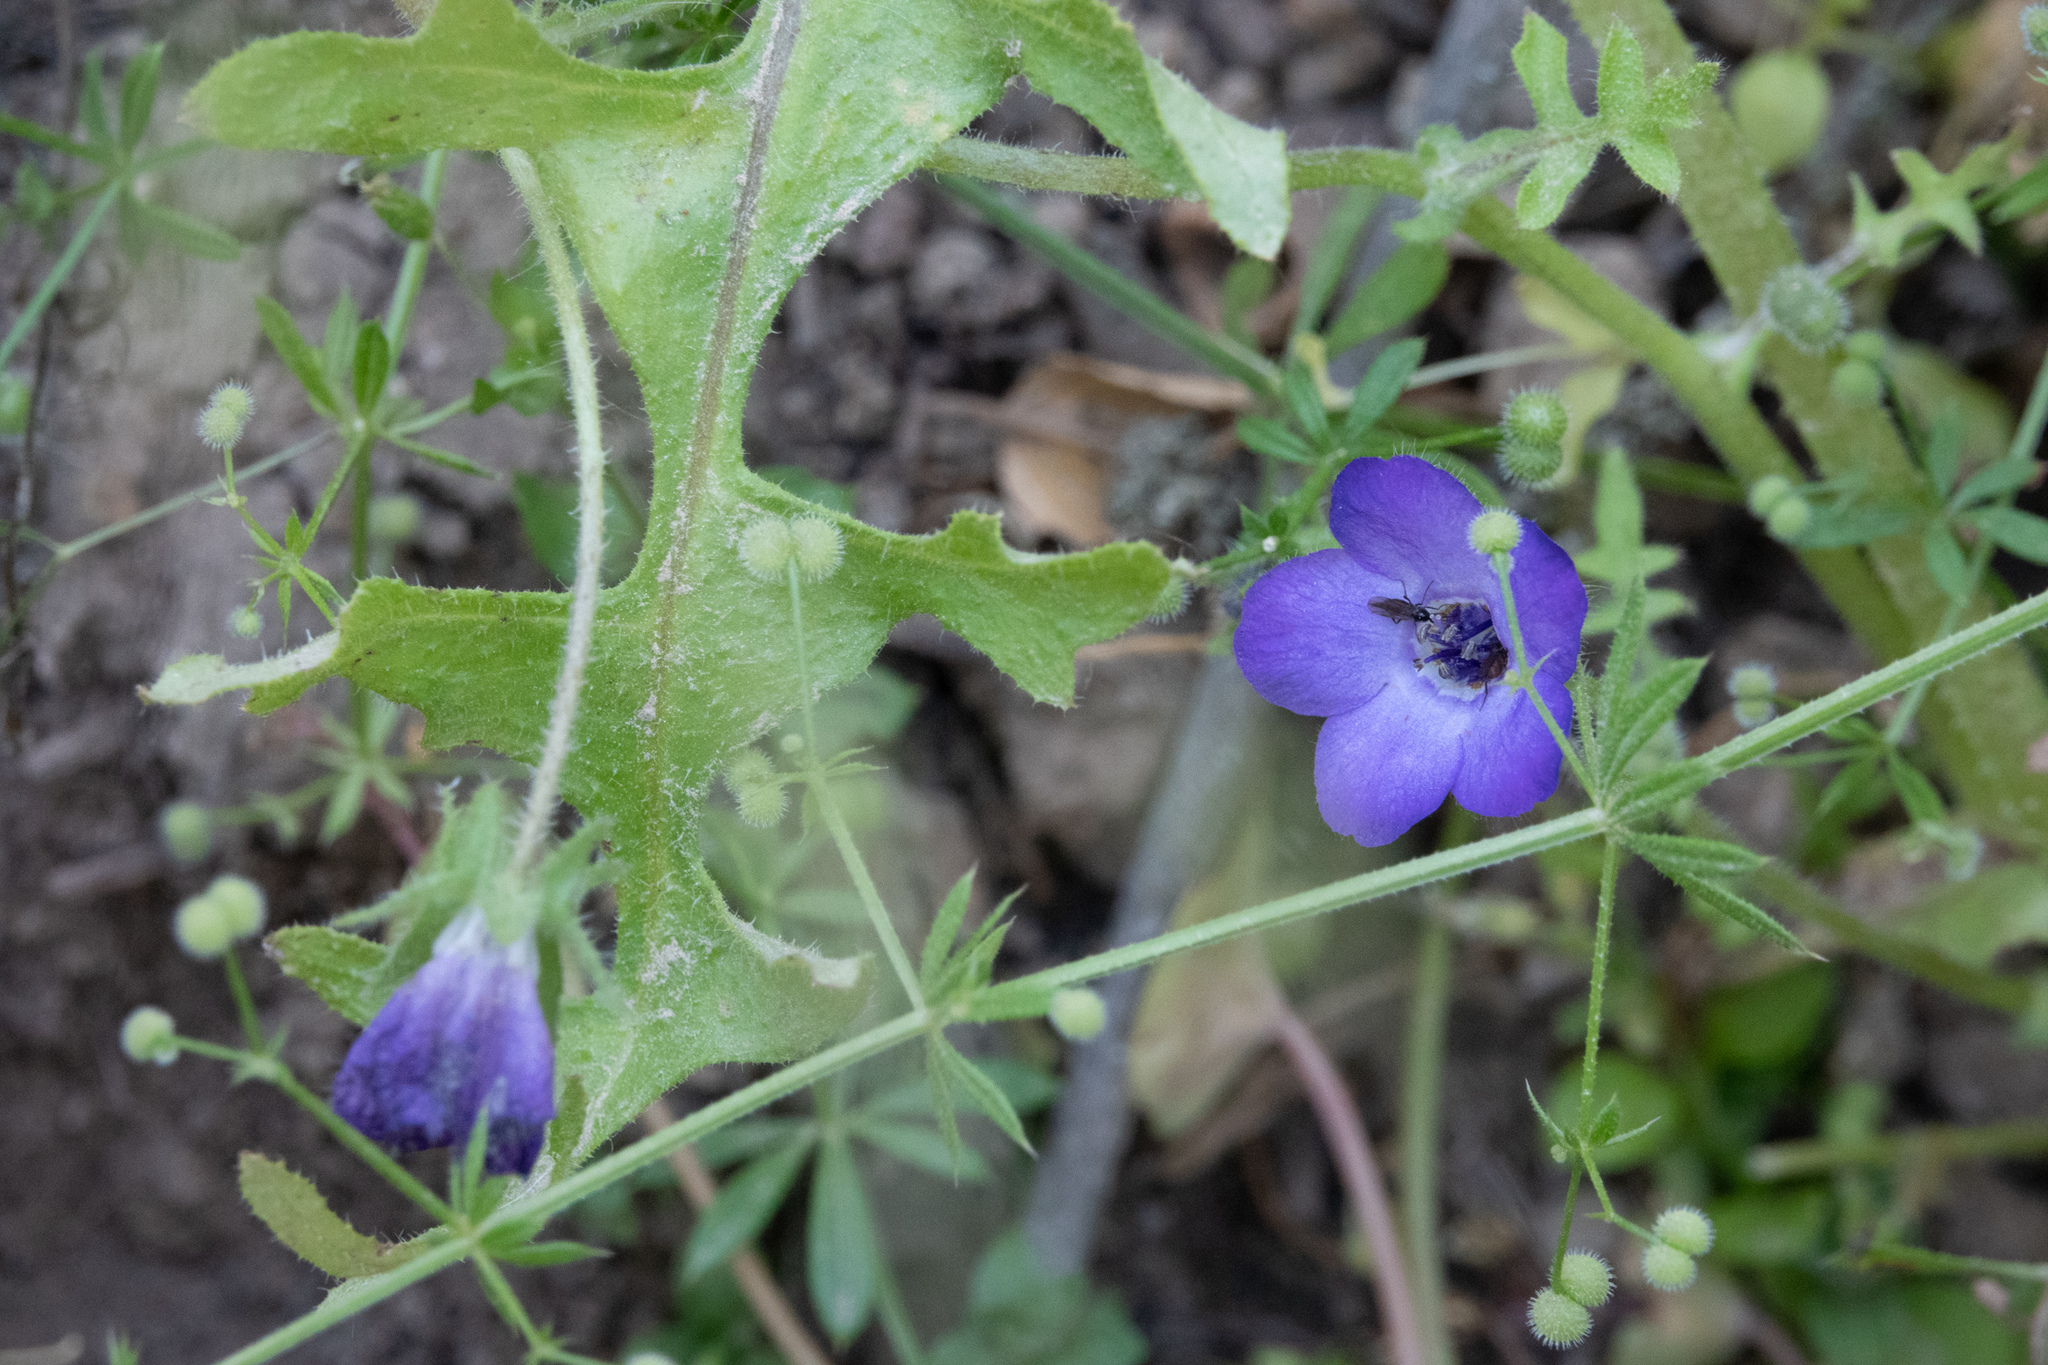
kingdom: Plantae
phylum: Tracheophyta
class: Magnoliopsida
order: Boraginales
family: Hydrophyllaceae
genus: Pholistoma
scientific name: Pholistoma auritum
